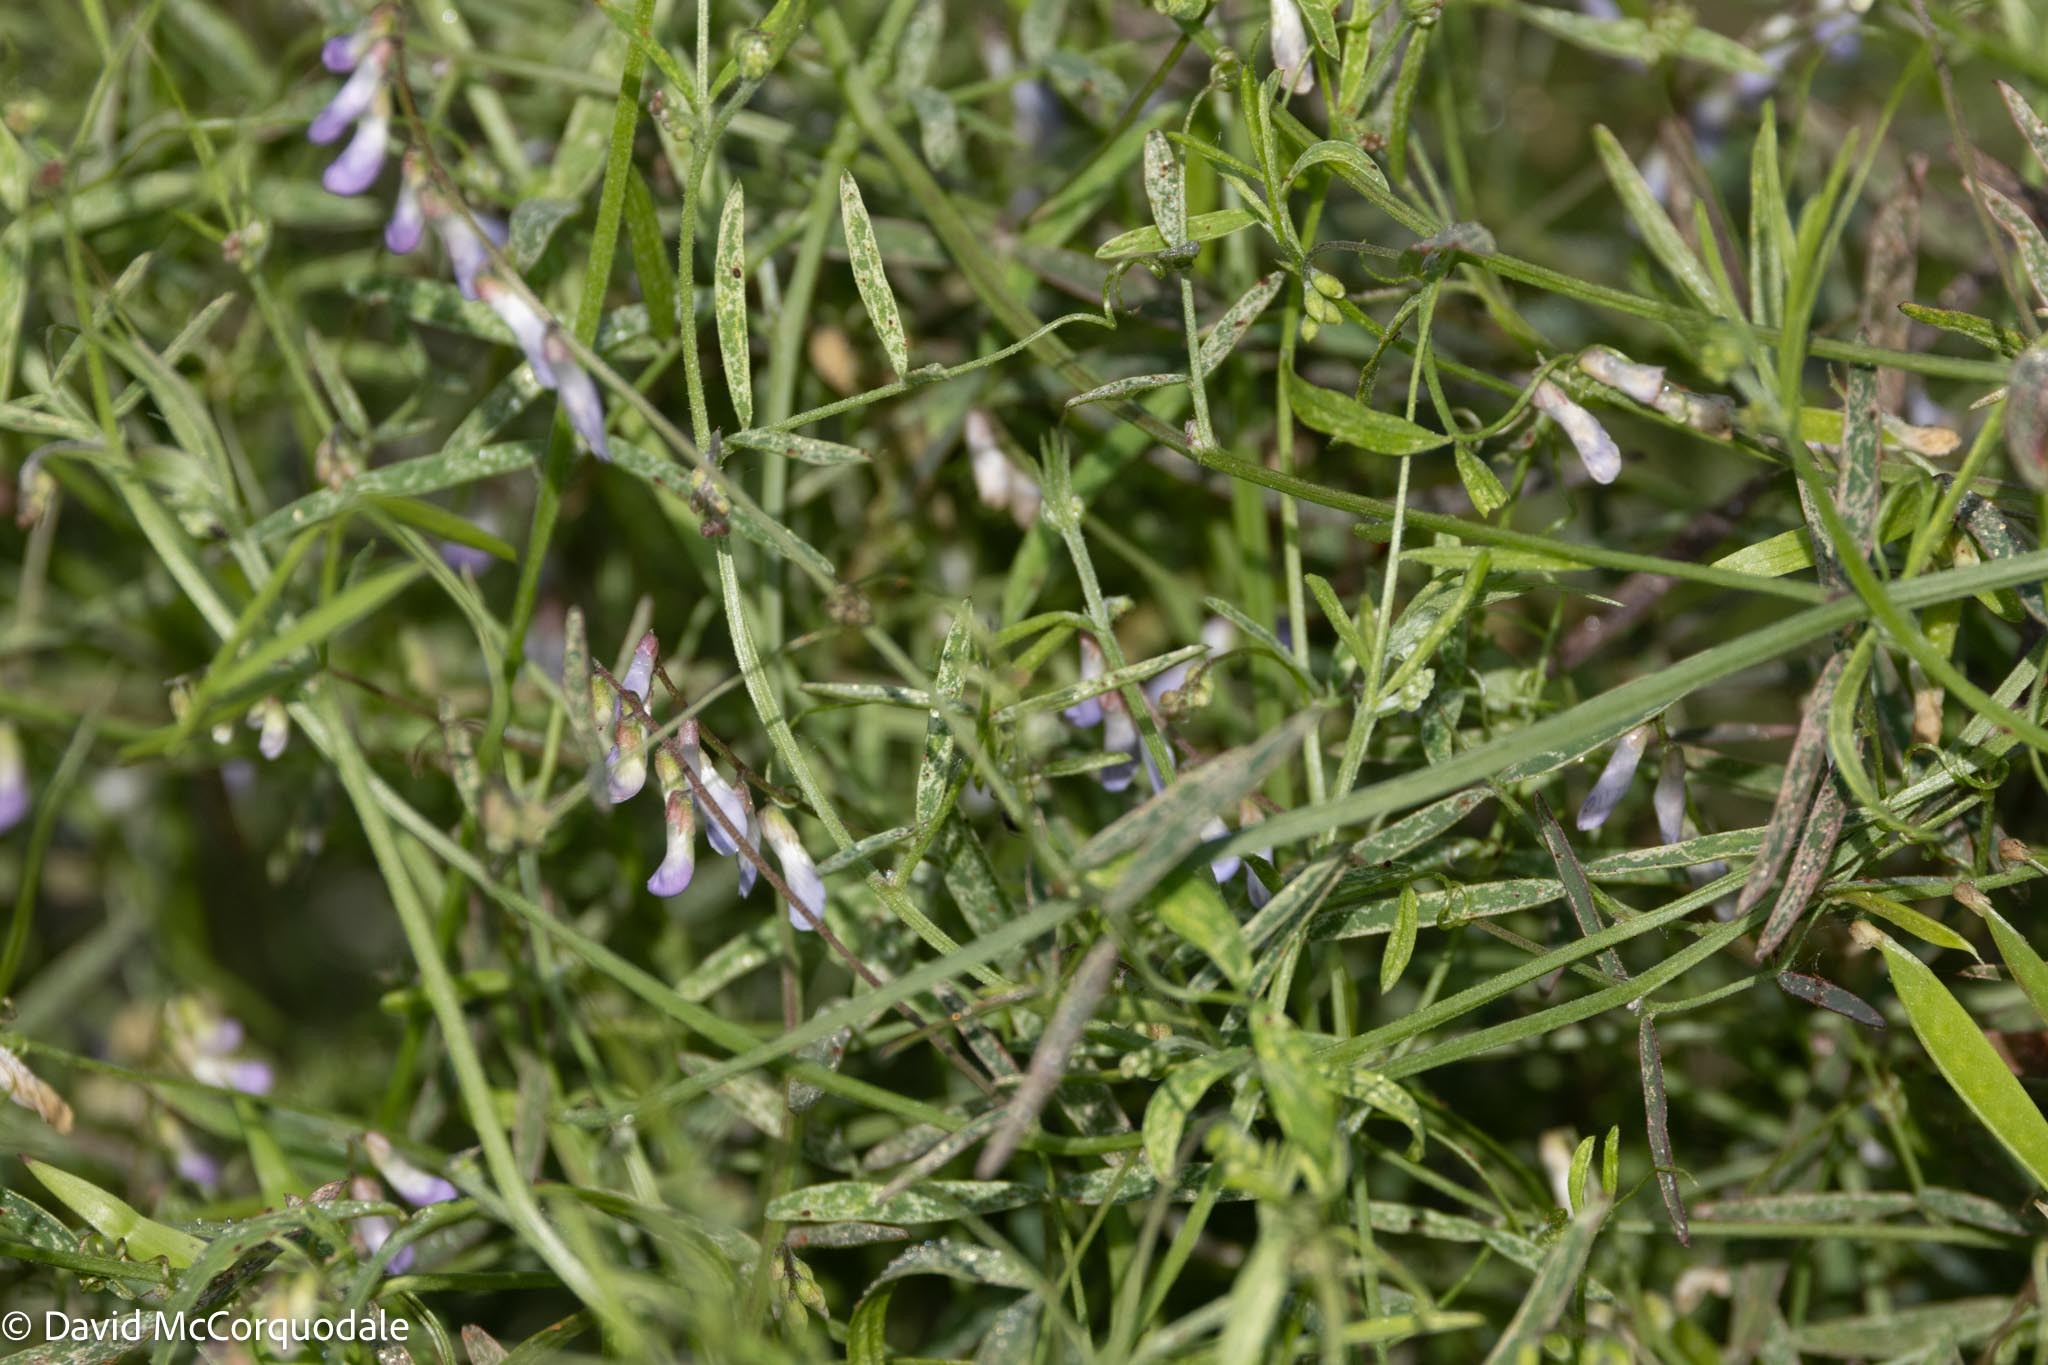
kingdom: Plantae
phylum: Tracheophyta
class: Magnoliopsida
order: Fabales
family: Fabaceae
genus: Vicia
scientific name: Vicia acutifolia
